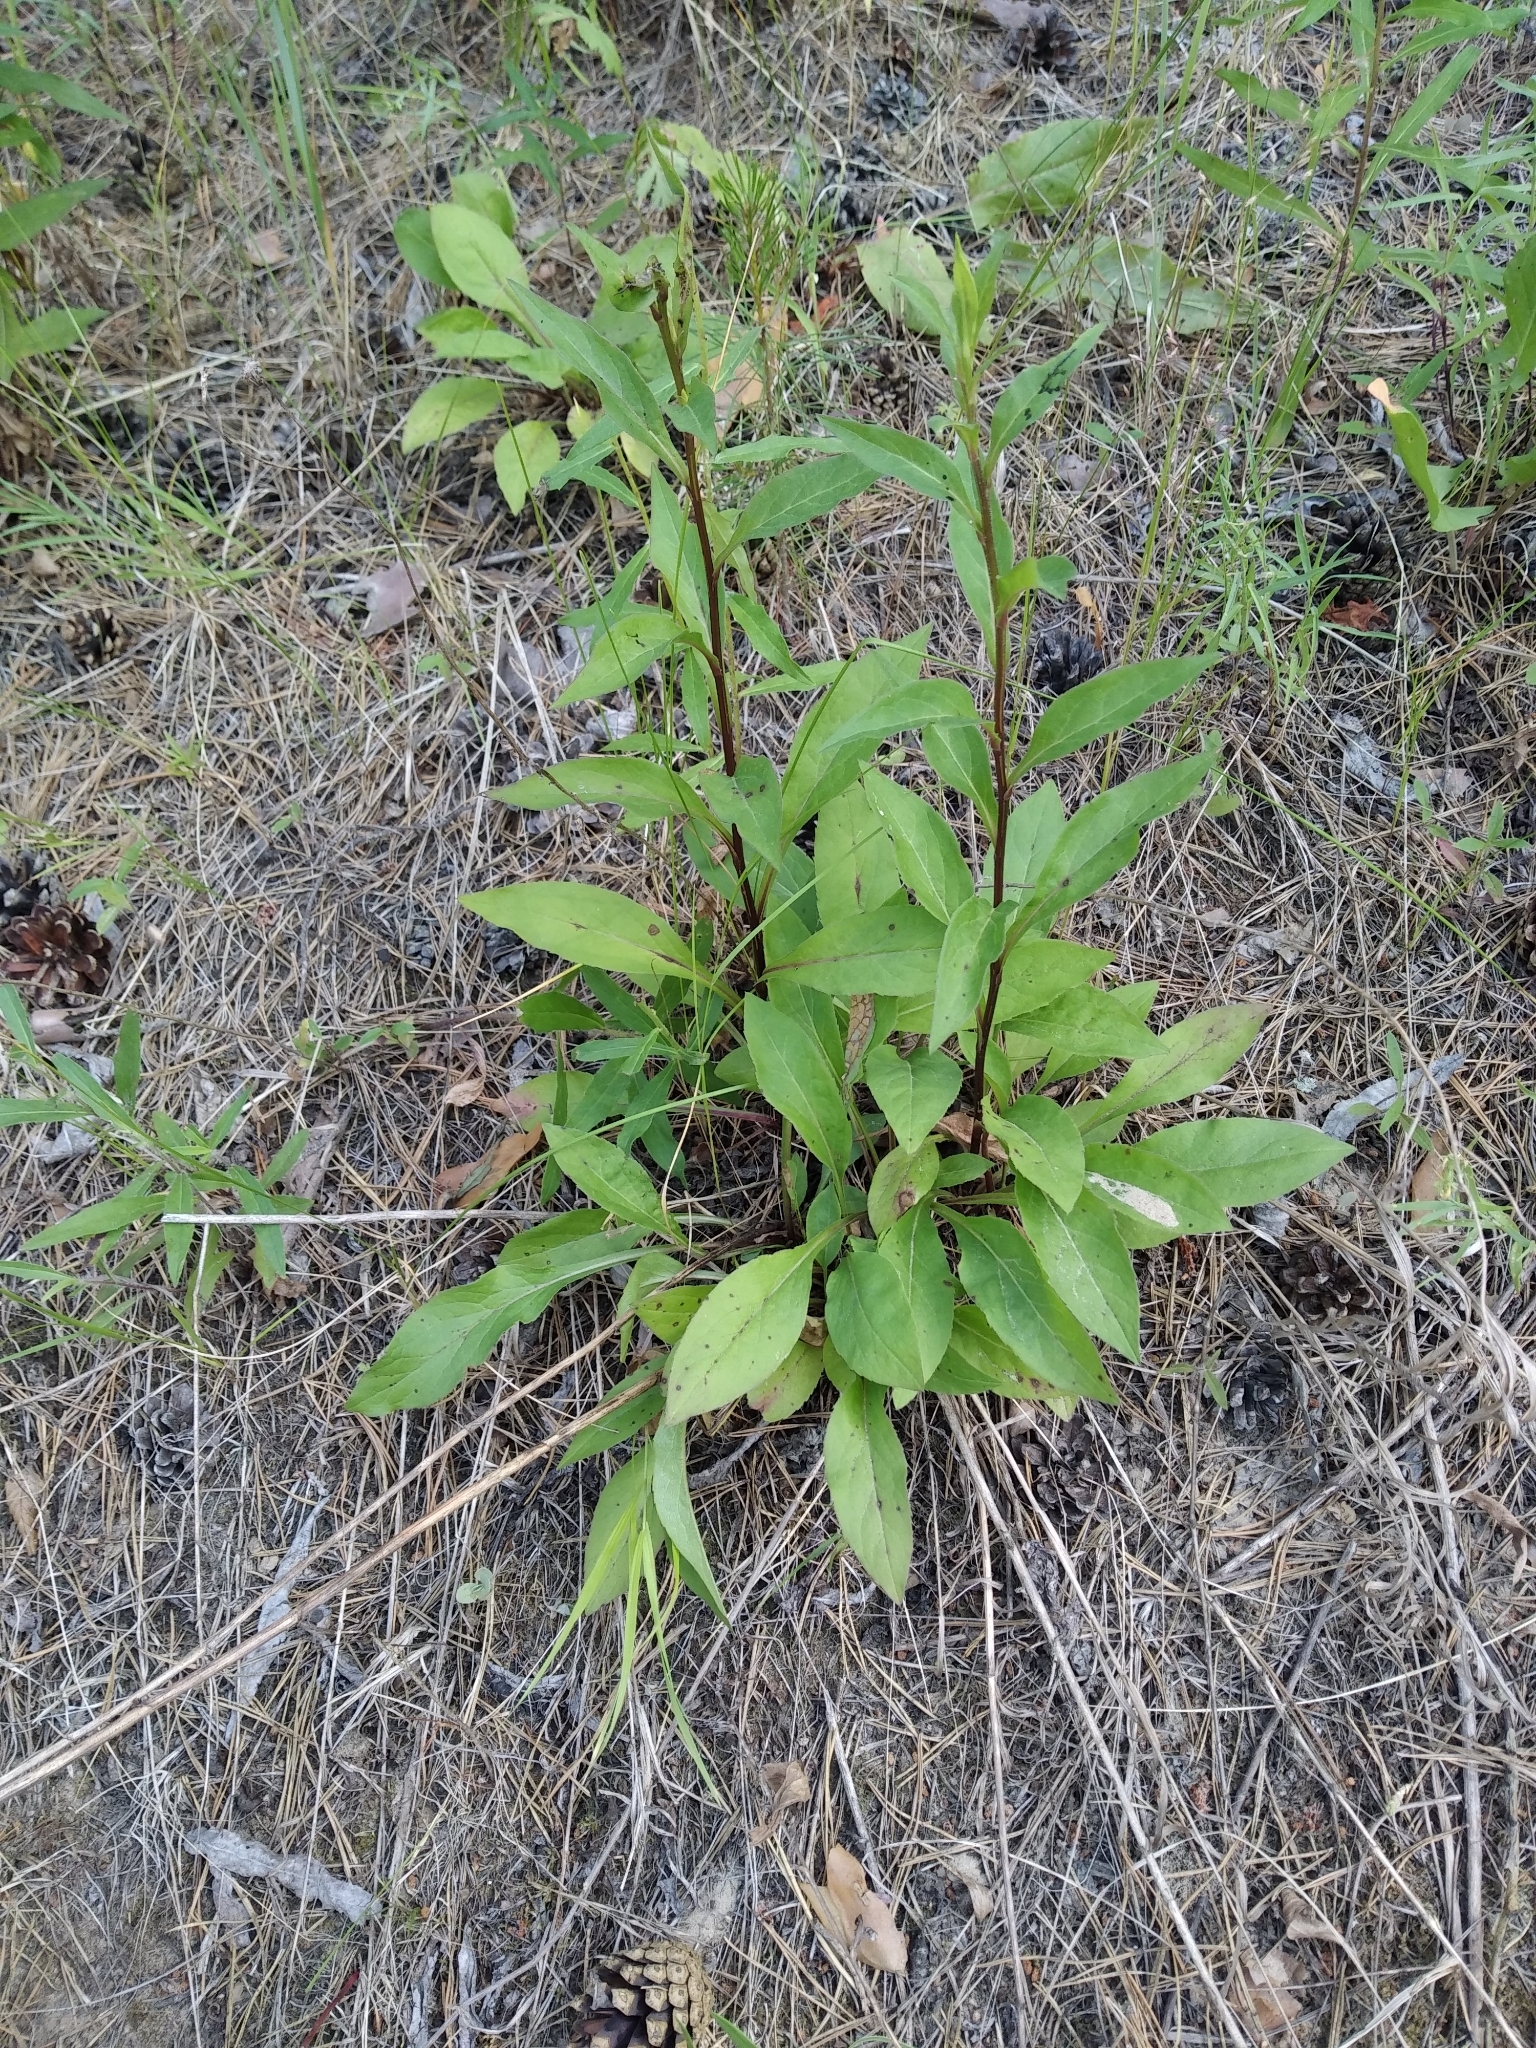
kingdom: Plantae
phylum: Tracheophyta
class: Magnoliopsida
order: Asterales
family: Asteraceae
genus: Solidago
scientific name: Solidago virgaurea
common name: Goldenrod
